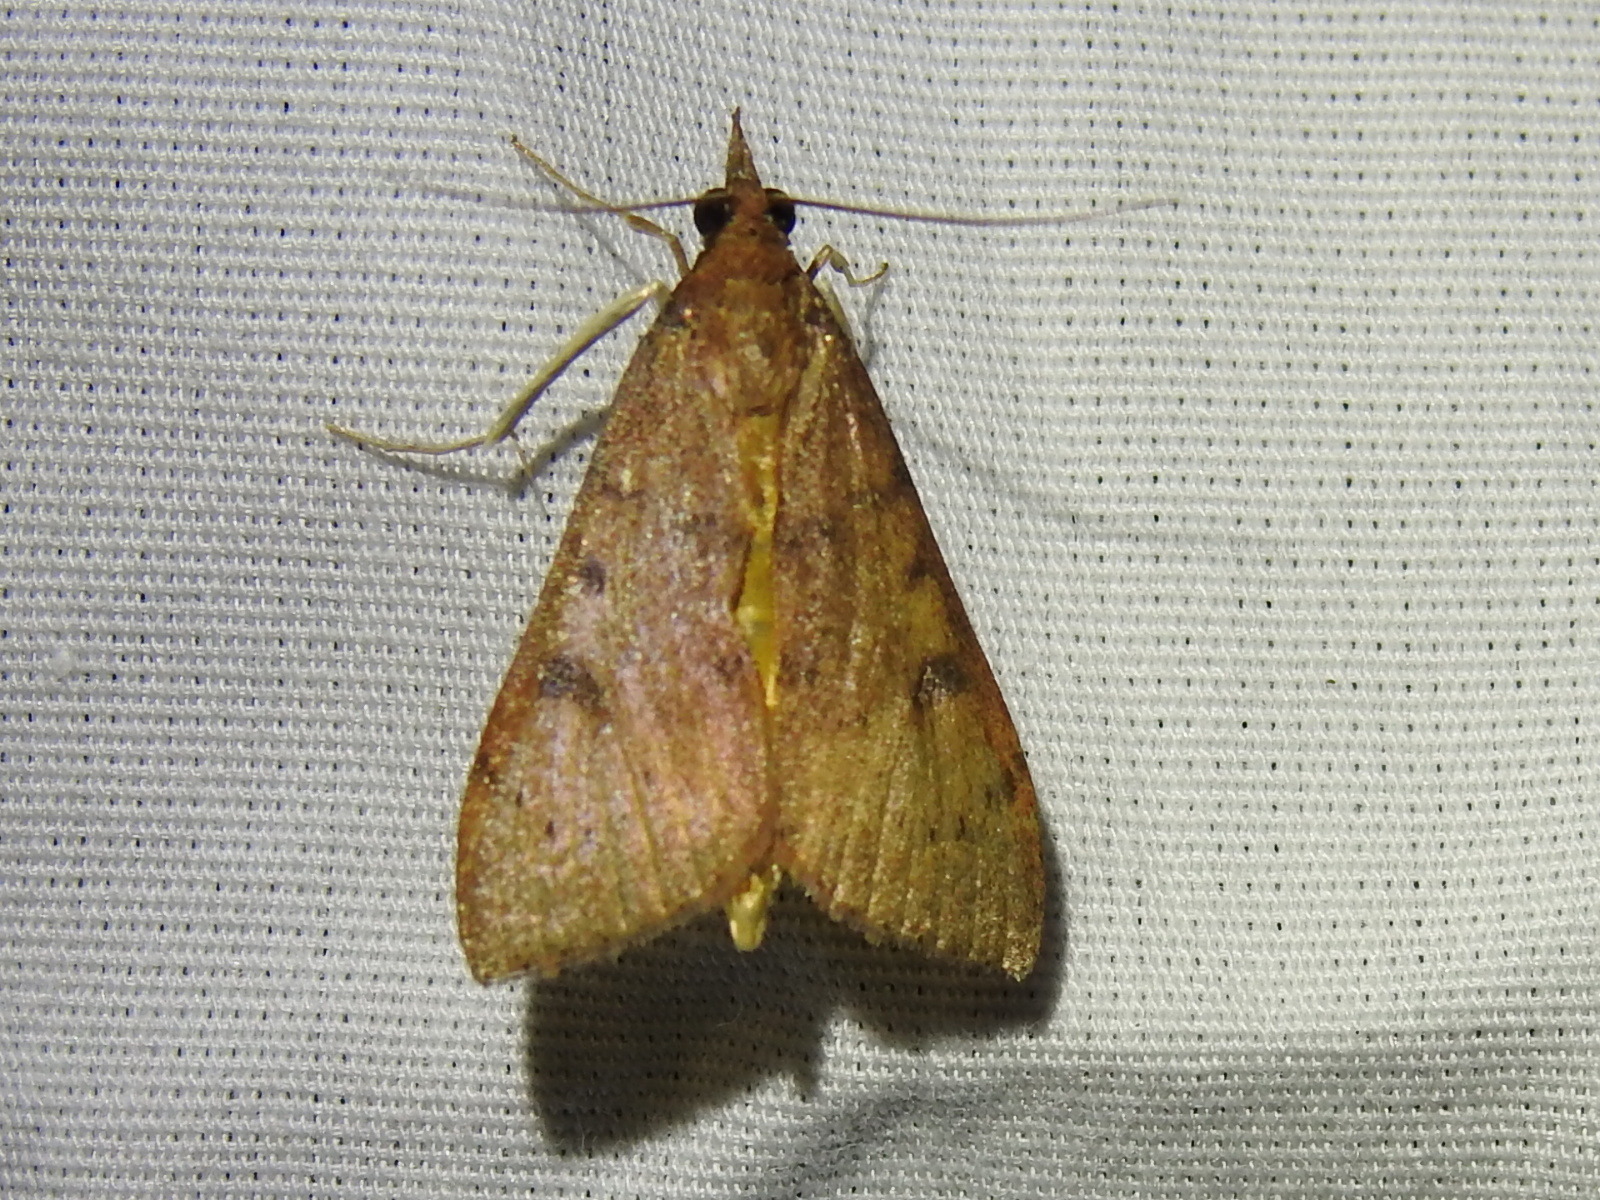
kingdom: Animalia
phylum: Arthropoda
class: Insecta
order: Lepidoptera
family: Crambidae
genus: Uresiphita
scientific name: Uresiphita reversalis
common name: Genista broom moth
